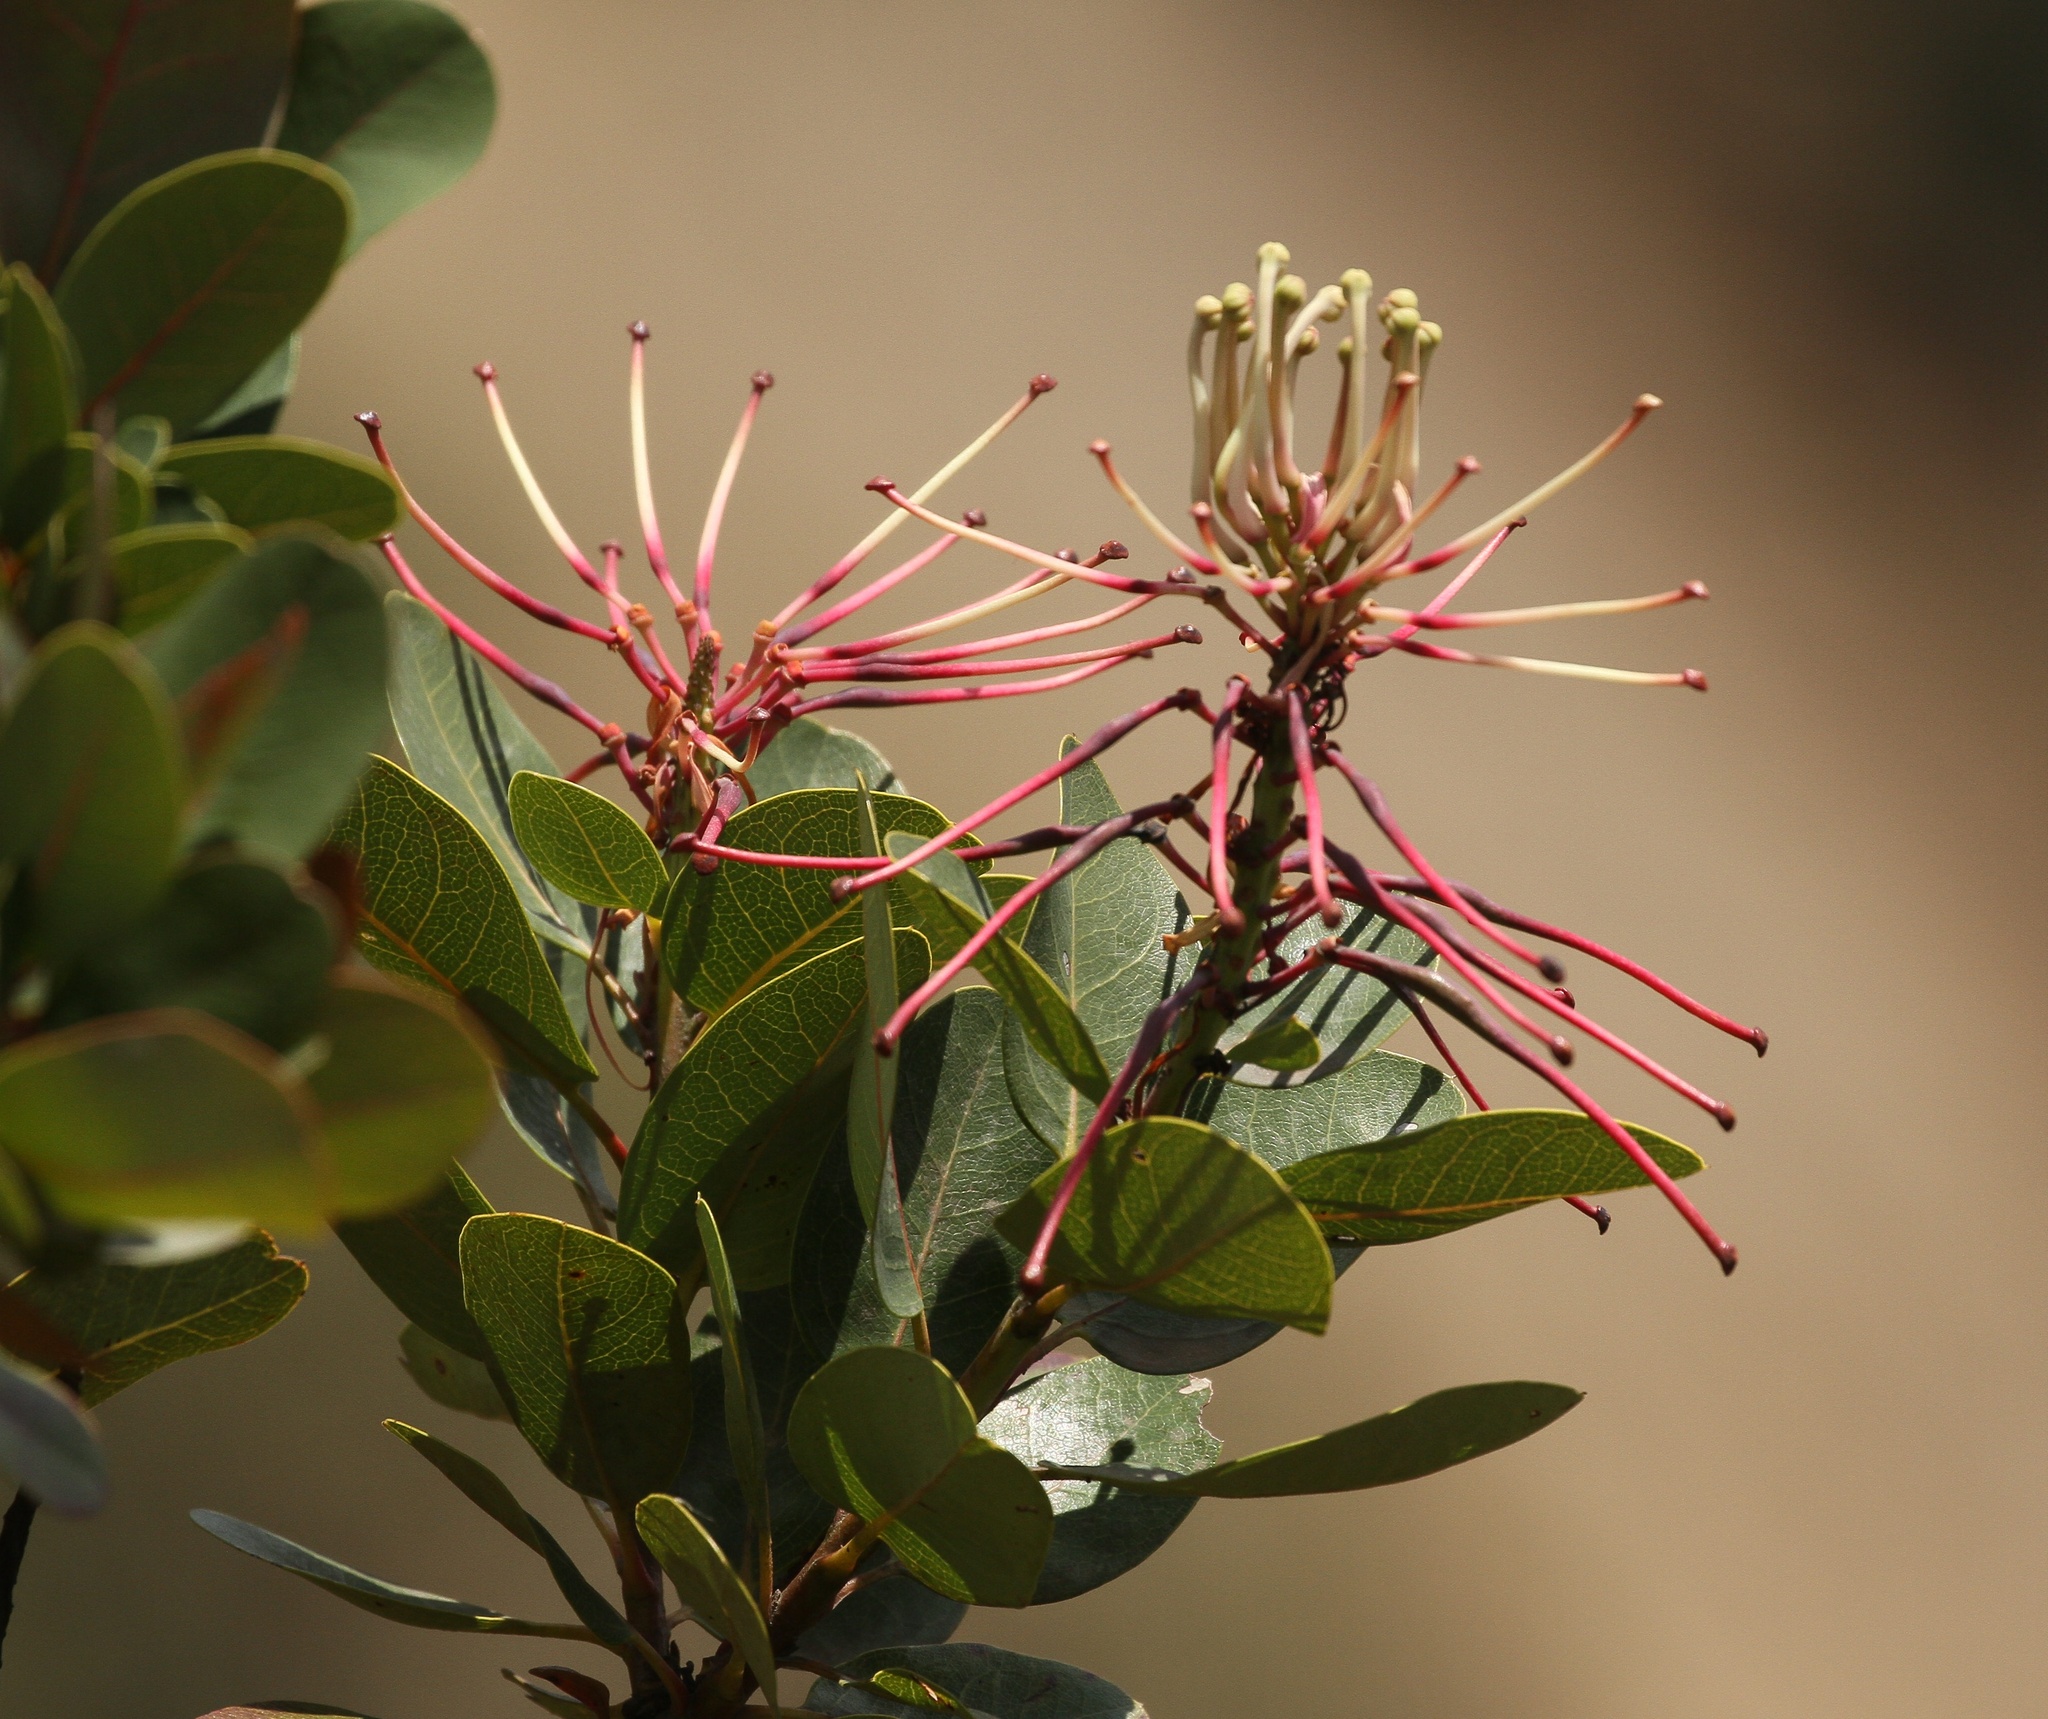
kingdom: Plantae
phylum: Tracheophyta
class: Magnoliopsida
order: Proteales
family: Proteaceae
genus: Oreocallis
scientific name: Oreocallis grandiflora
